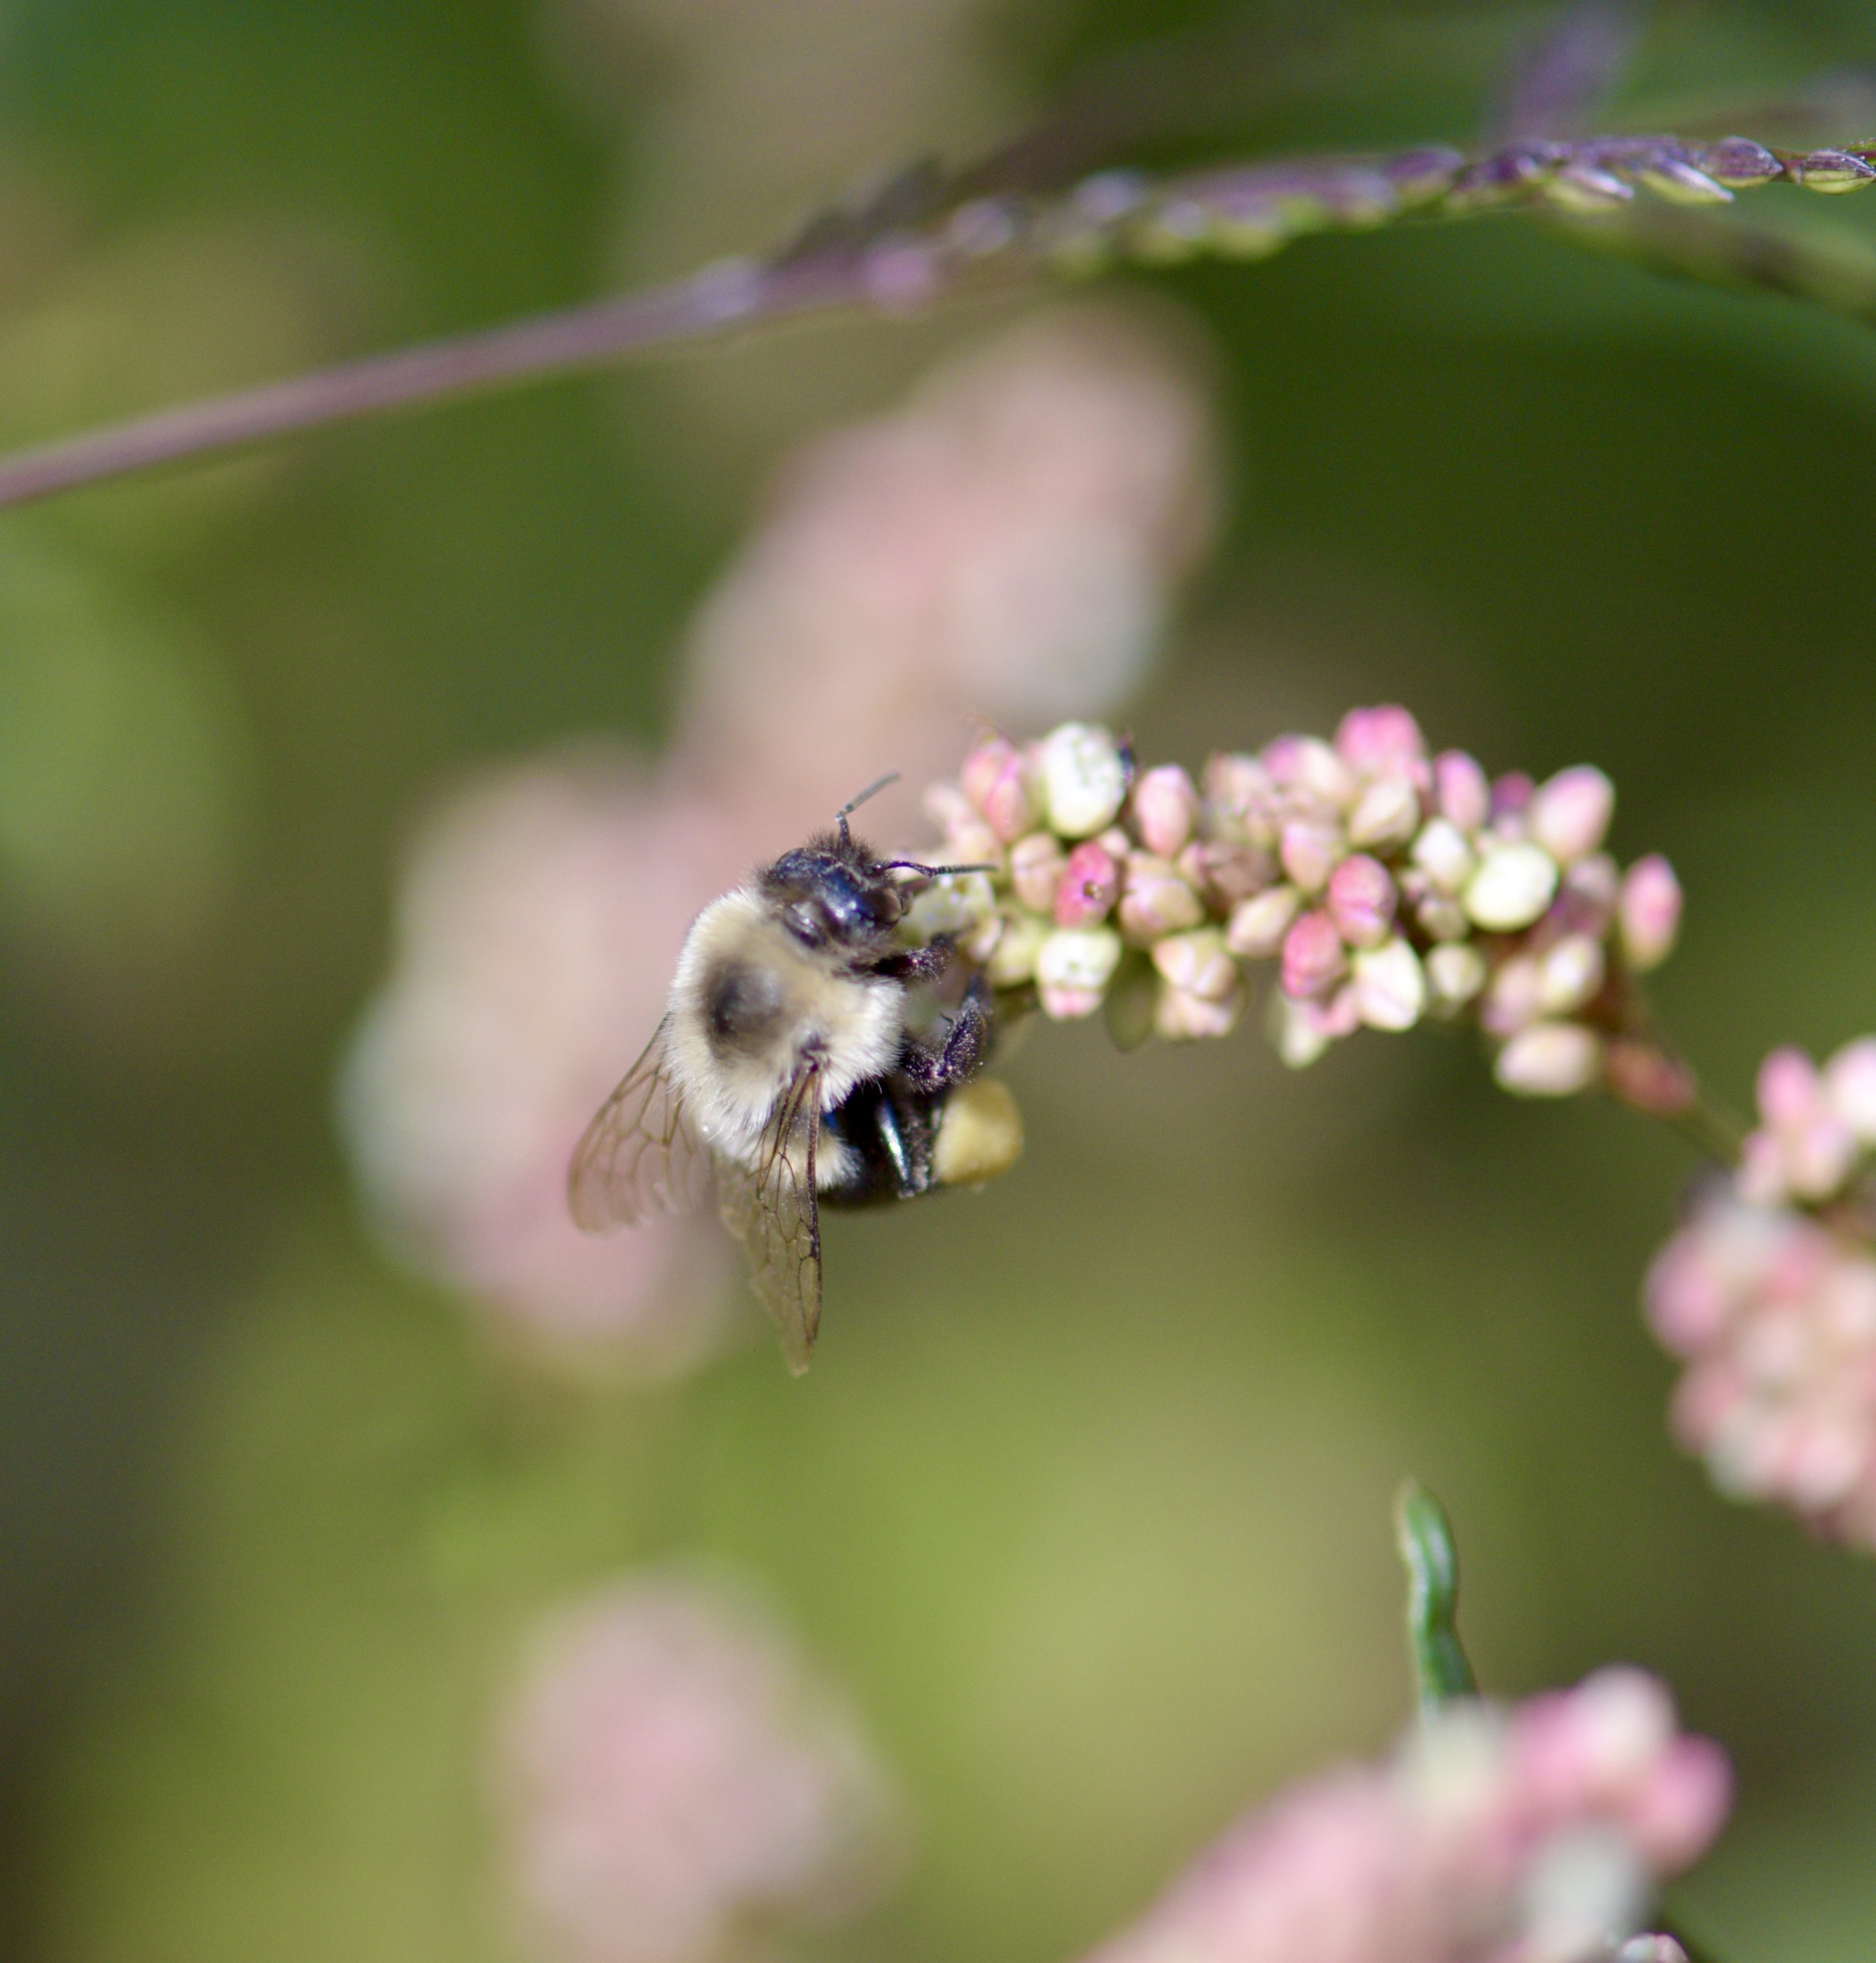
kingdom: Animalia
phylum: Arthropoda
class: Insecta
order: Hymenoptera
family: Apidae
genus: Bombus
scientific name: Bombus impatiens
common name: Common eastern bumble bee
